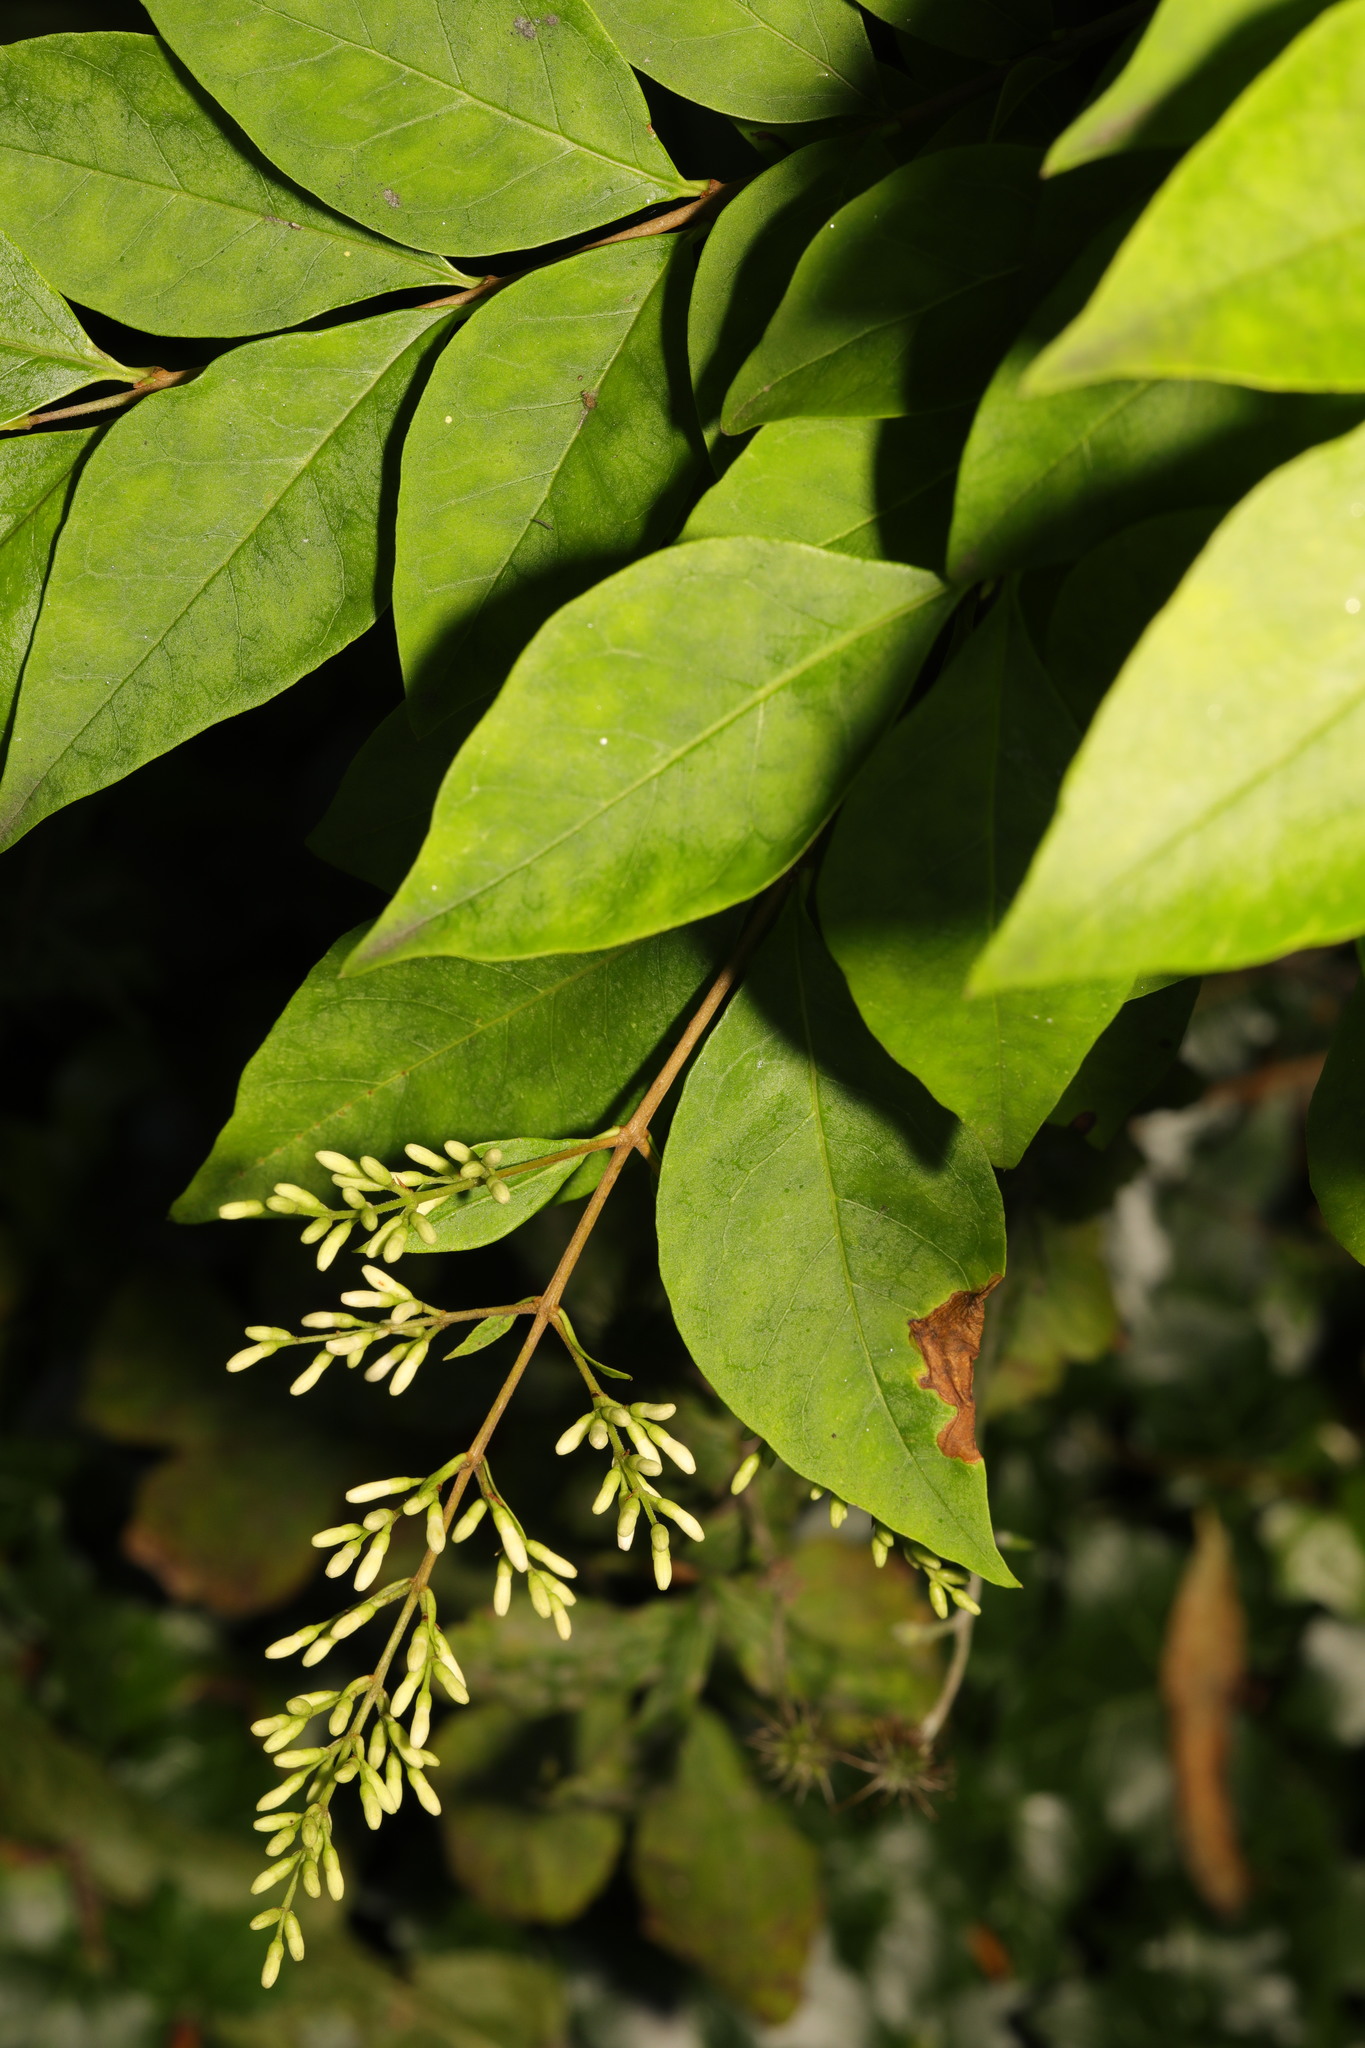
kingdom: Plantae
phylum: Tracheophyta
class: Magnoliopsida
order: Lamiales
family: Oleaceae
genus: Ligustrum
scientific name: Ligustrum ovalifolium
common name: California privet
